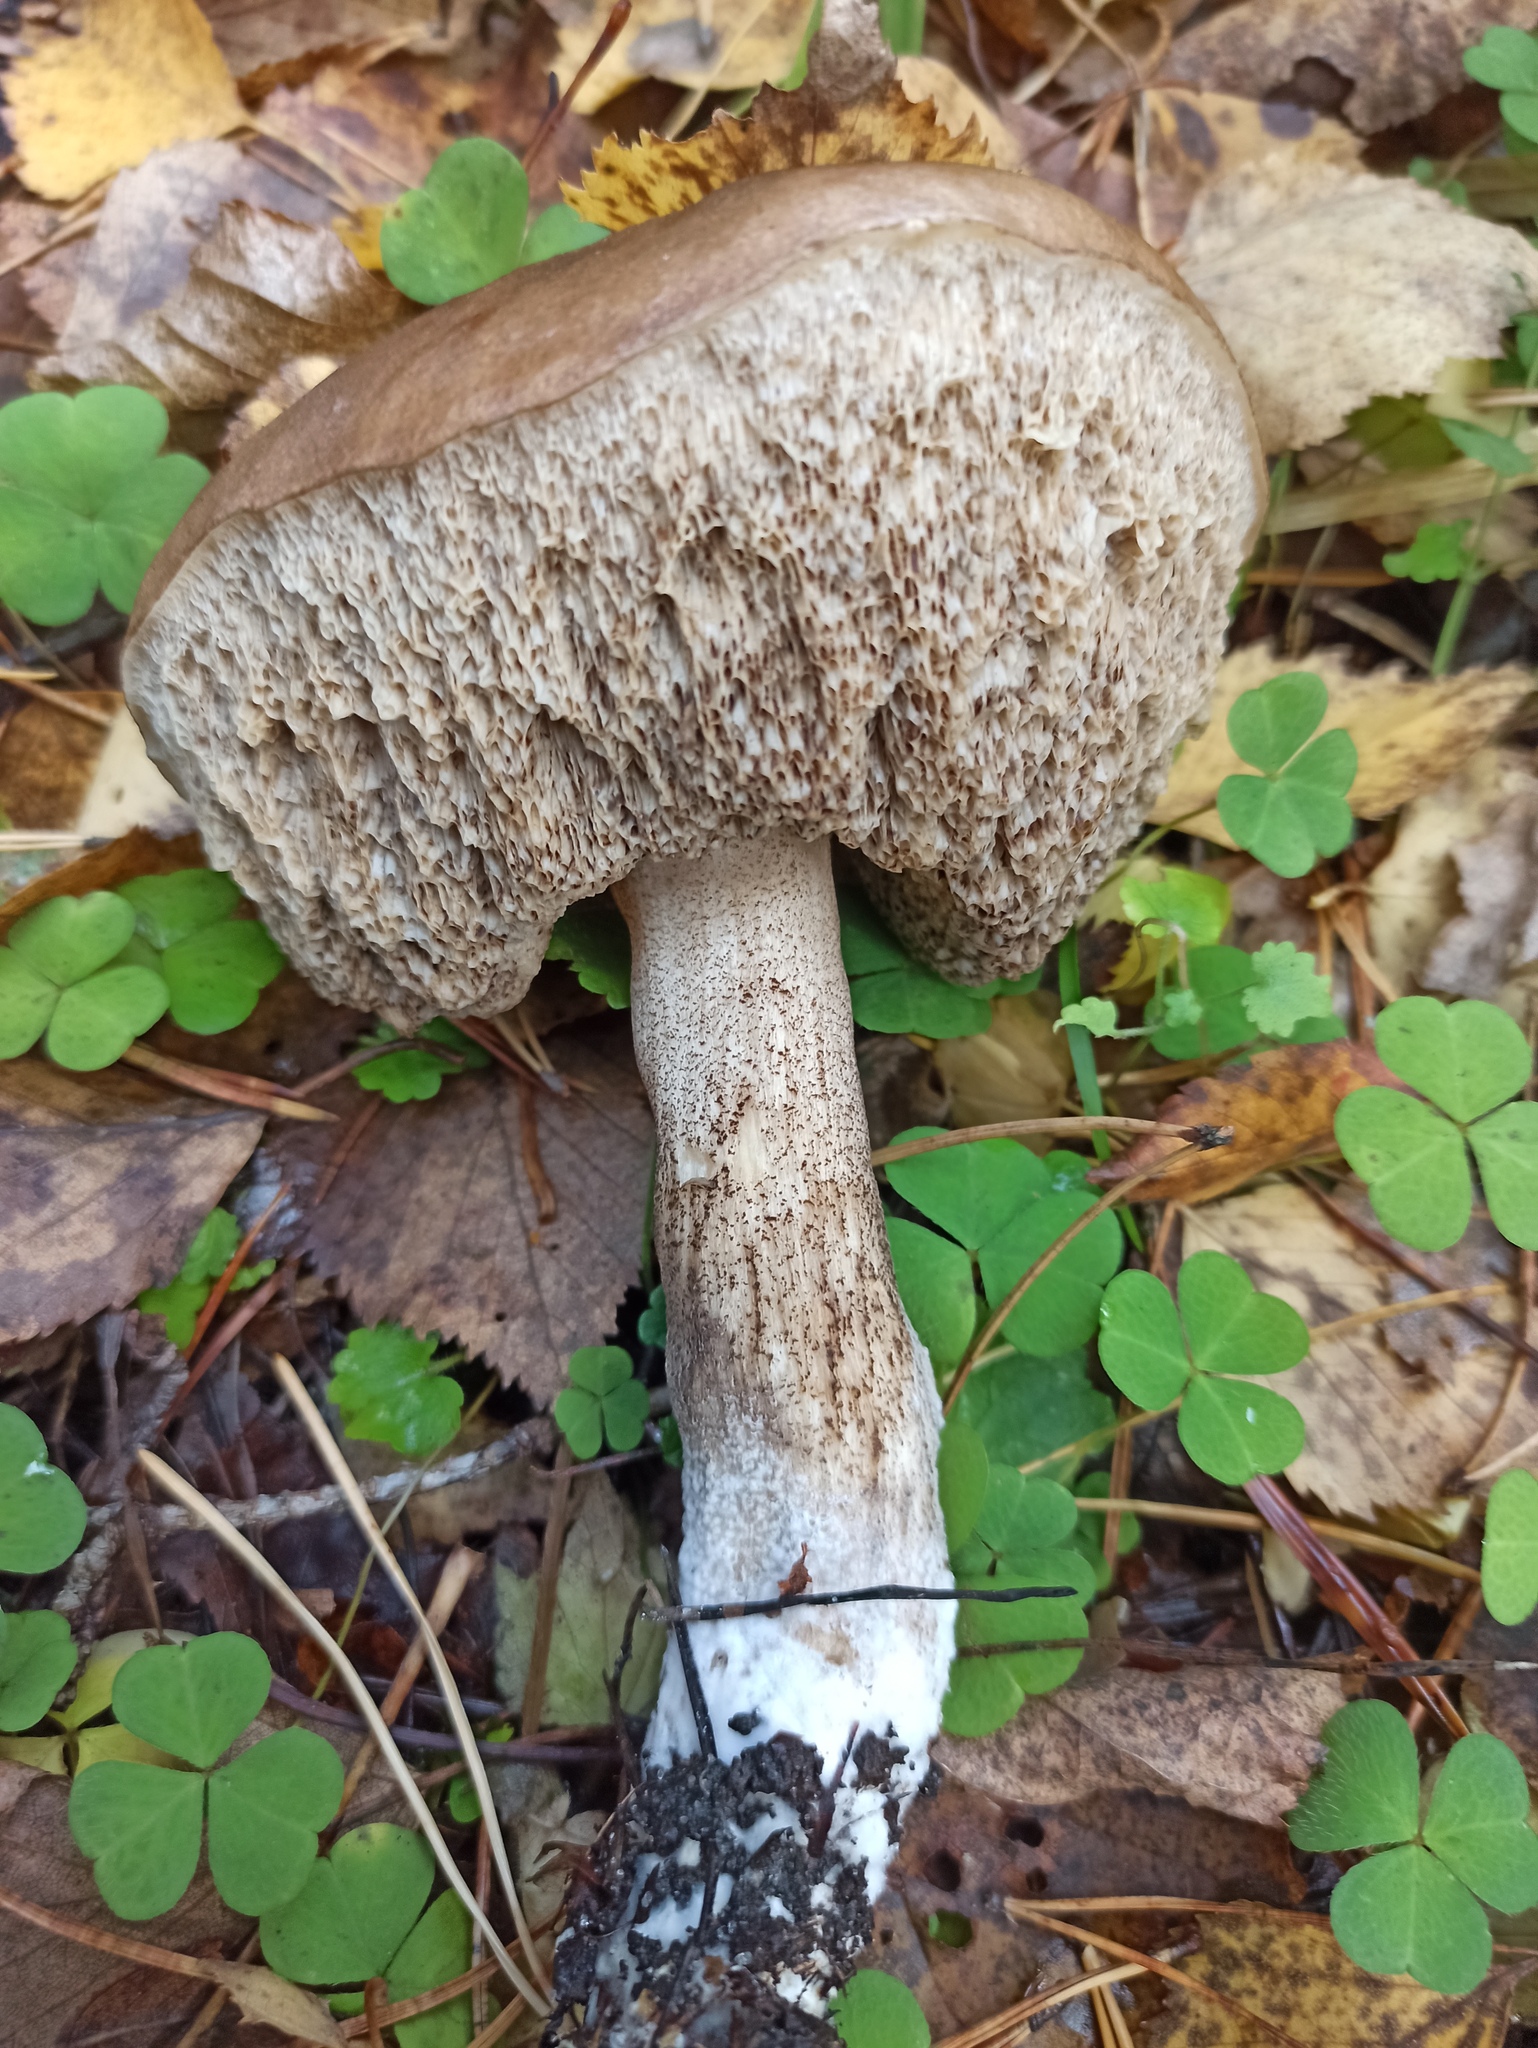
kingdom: Fungi
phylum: Basidiomycota
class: Agaricomycetes
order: Boletales
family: Boletaceae
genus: Leccinum
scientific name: Leccinum scabrum
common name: Blushing bolete
